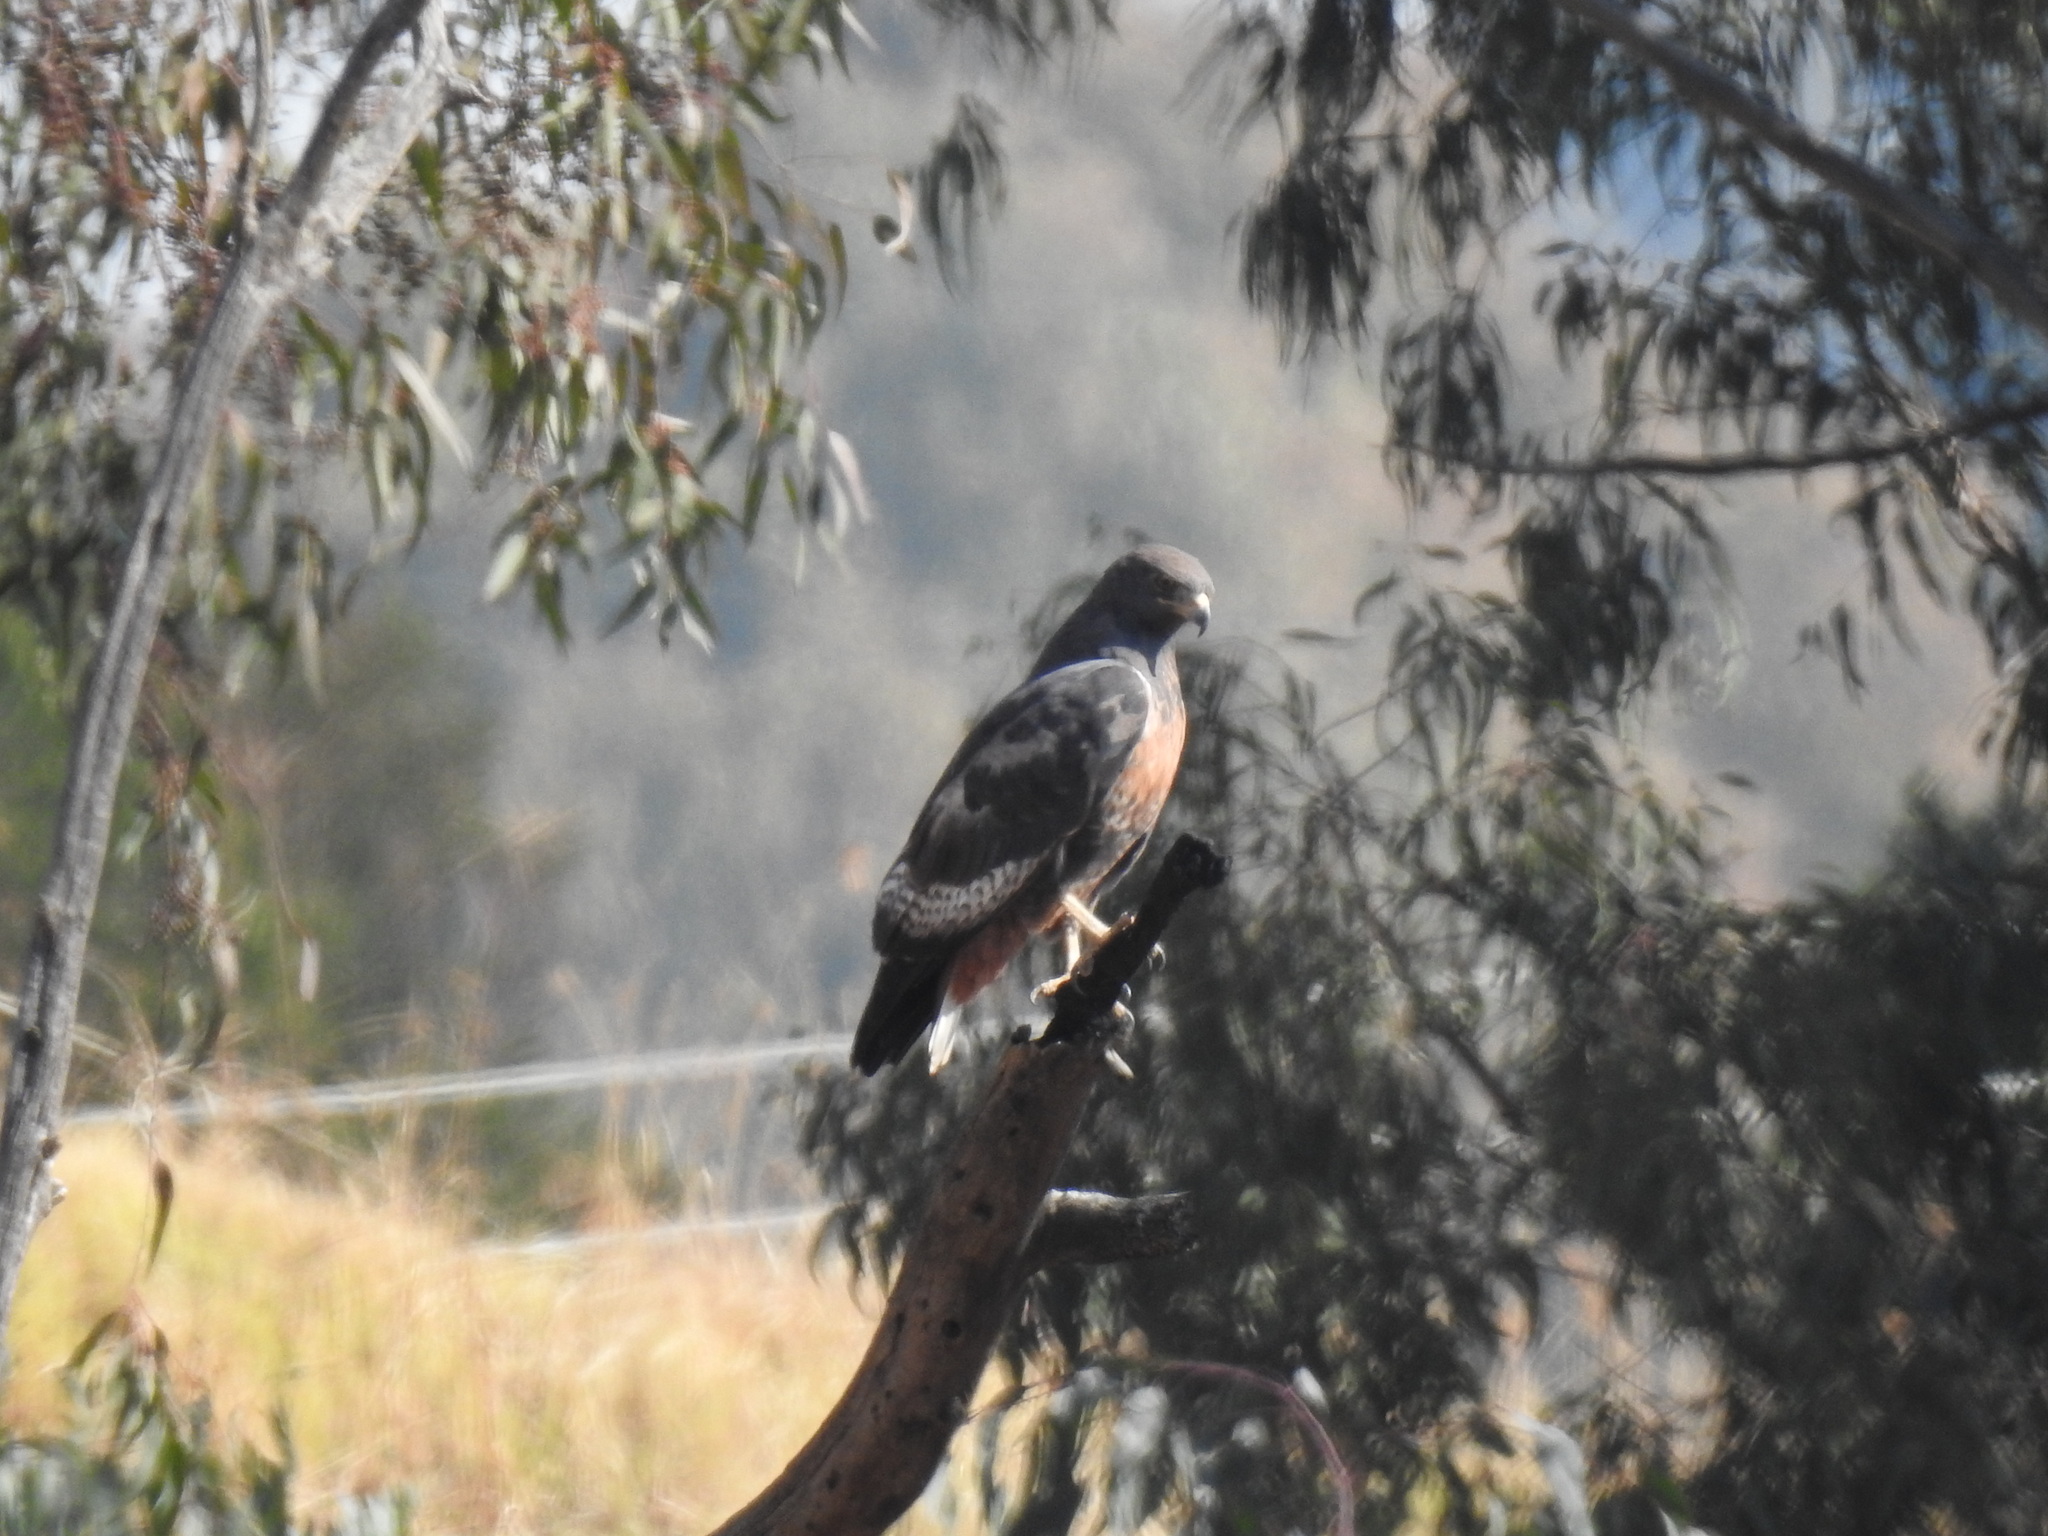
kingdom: Animalia
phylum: Chordata
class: Aves
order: Accipitriformes
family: Accipitridae
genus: Buteo
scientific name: Buteo rufofuscus
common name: Jackal buzzard
